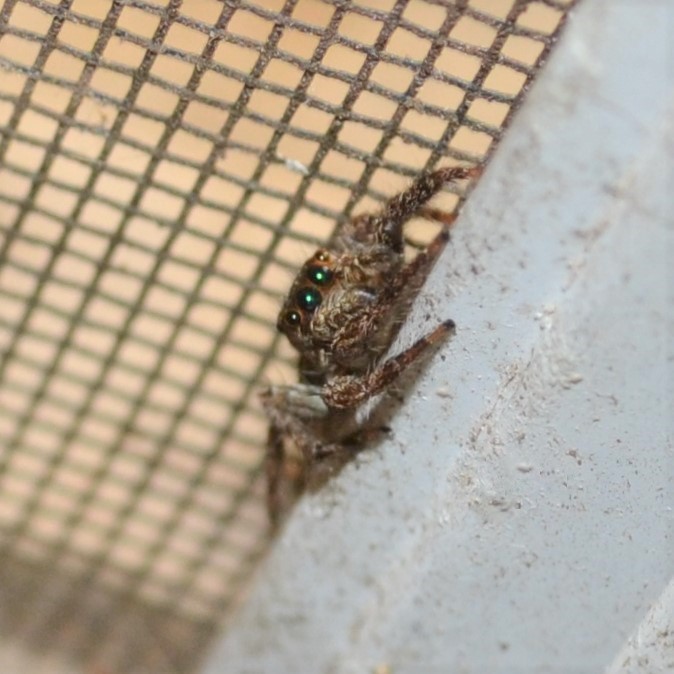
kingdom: Animalia
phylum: Arthropoda
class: Arachnida
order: Araneae
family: Salticidae
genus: Plexippus
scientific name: Plexippus paykulli
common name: Pantropical jumper
